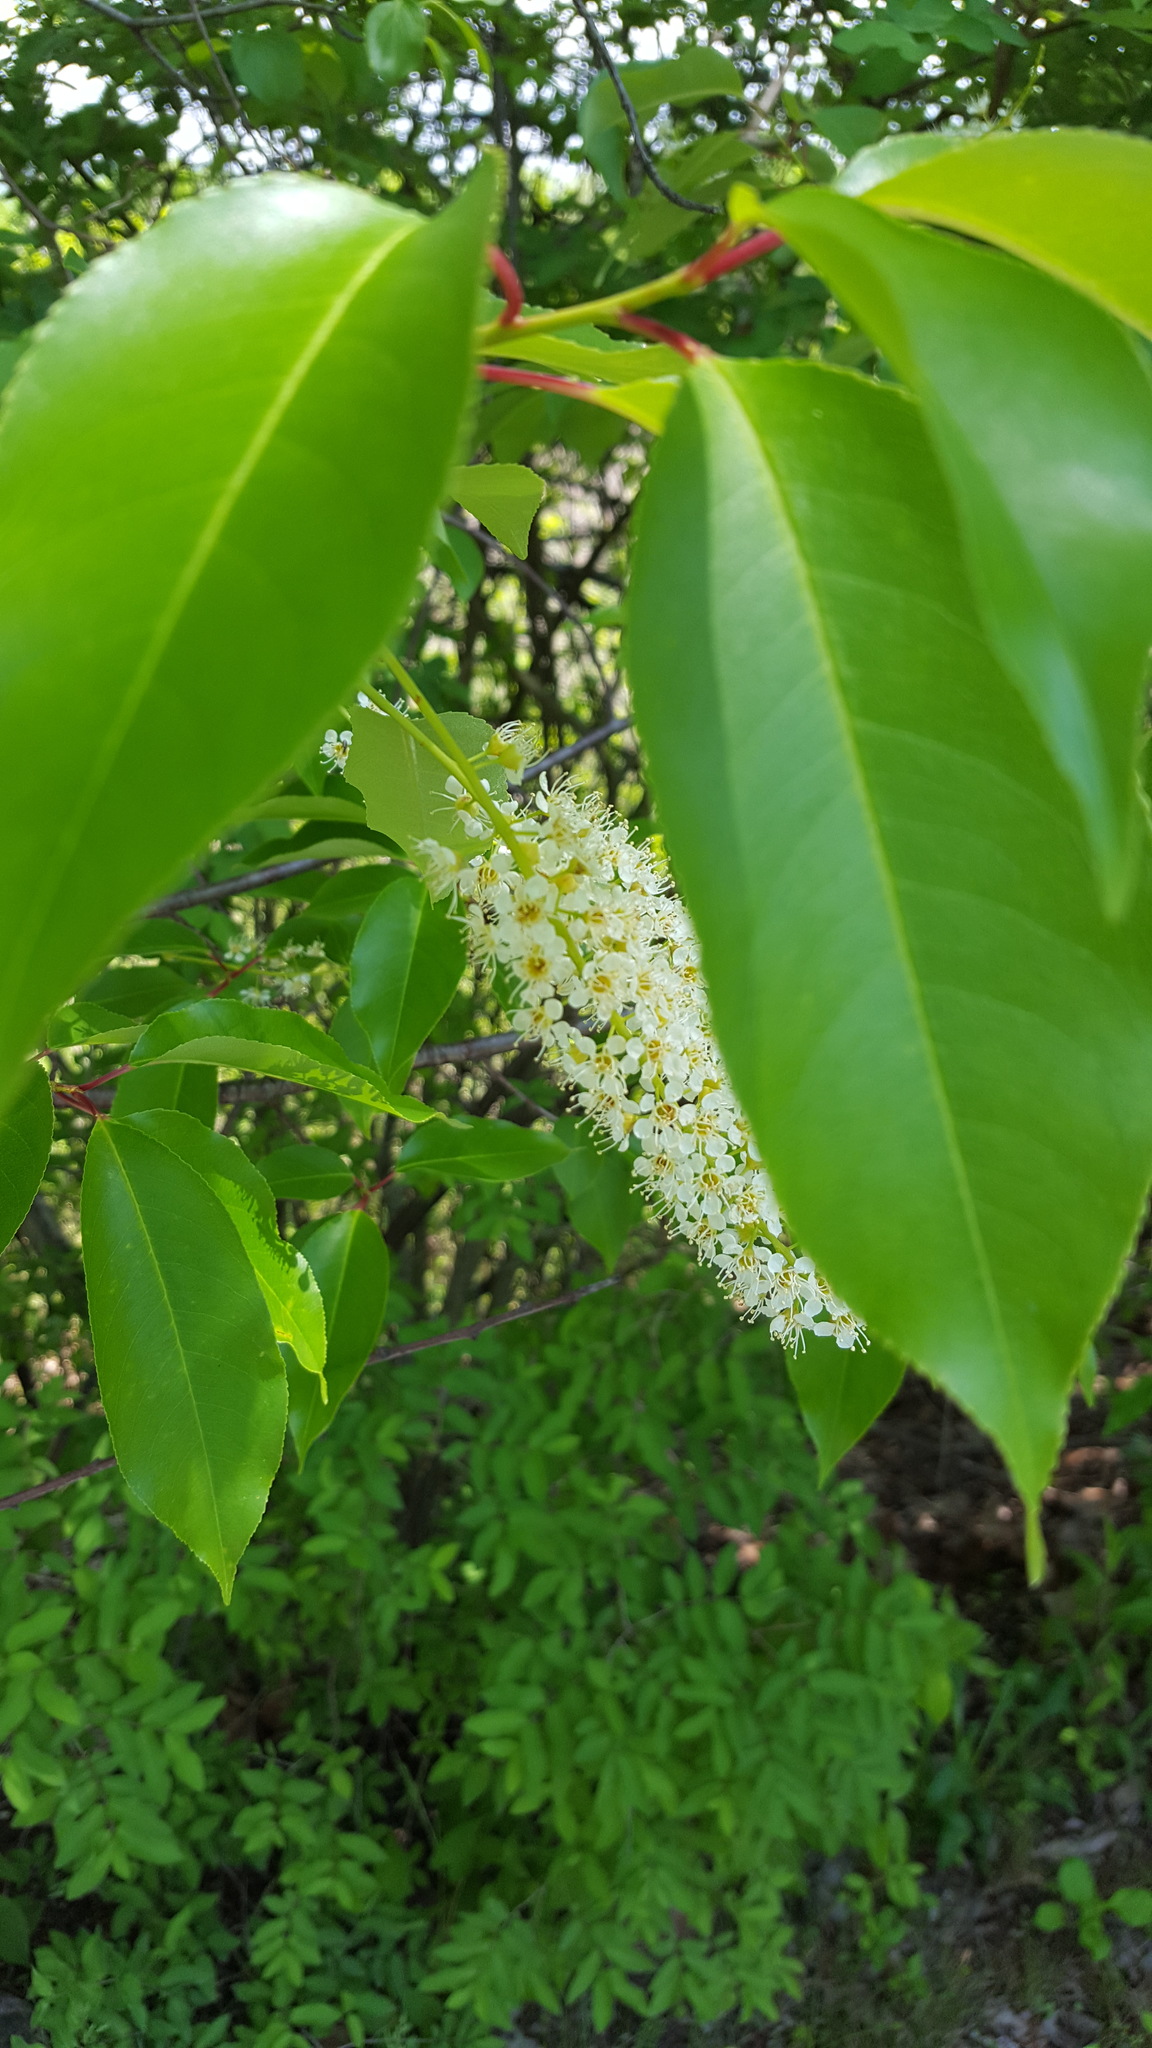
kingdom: Plantae
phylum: Tracheophyta
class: Magnoliopsida
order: Rosales
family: Rosaceae
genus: Prunus
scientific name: Prunus serotina
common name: Black cherry
